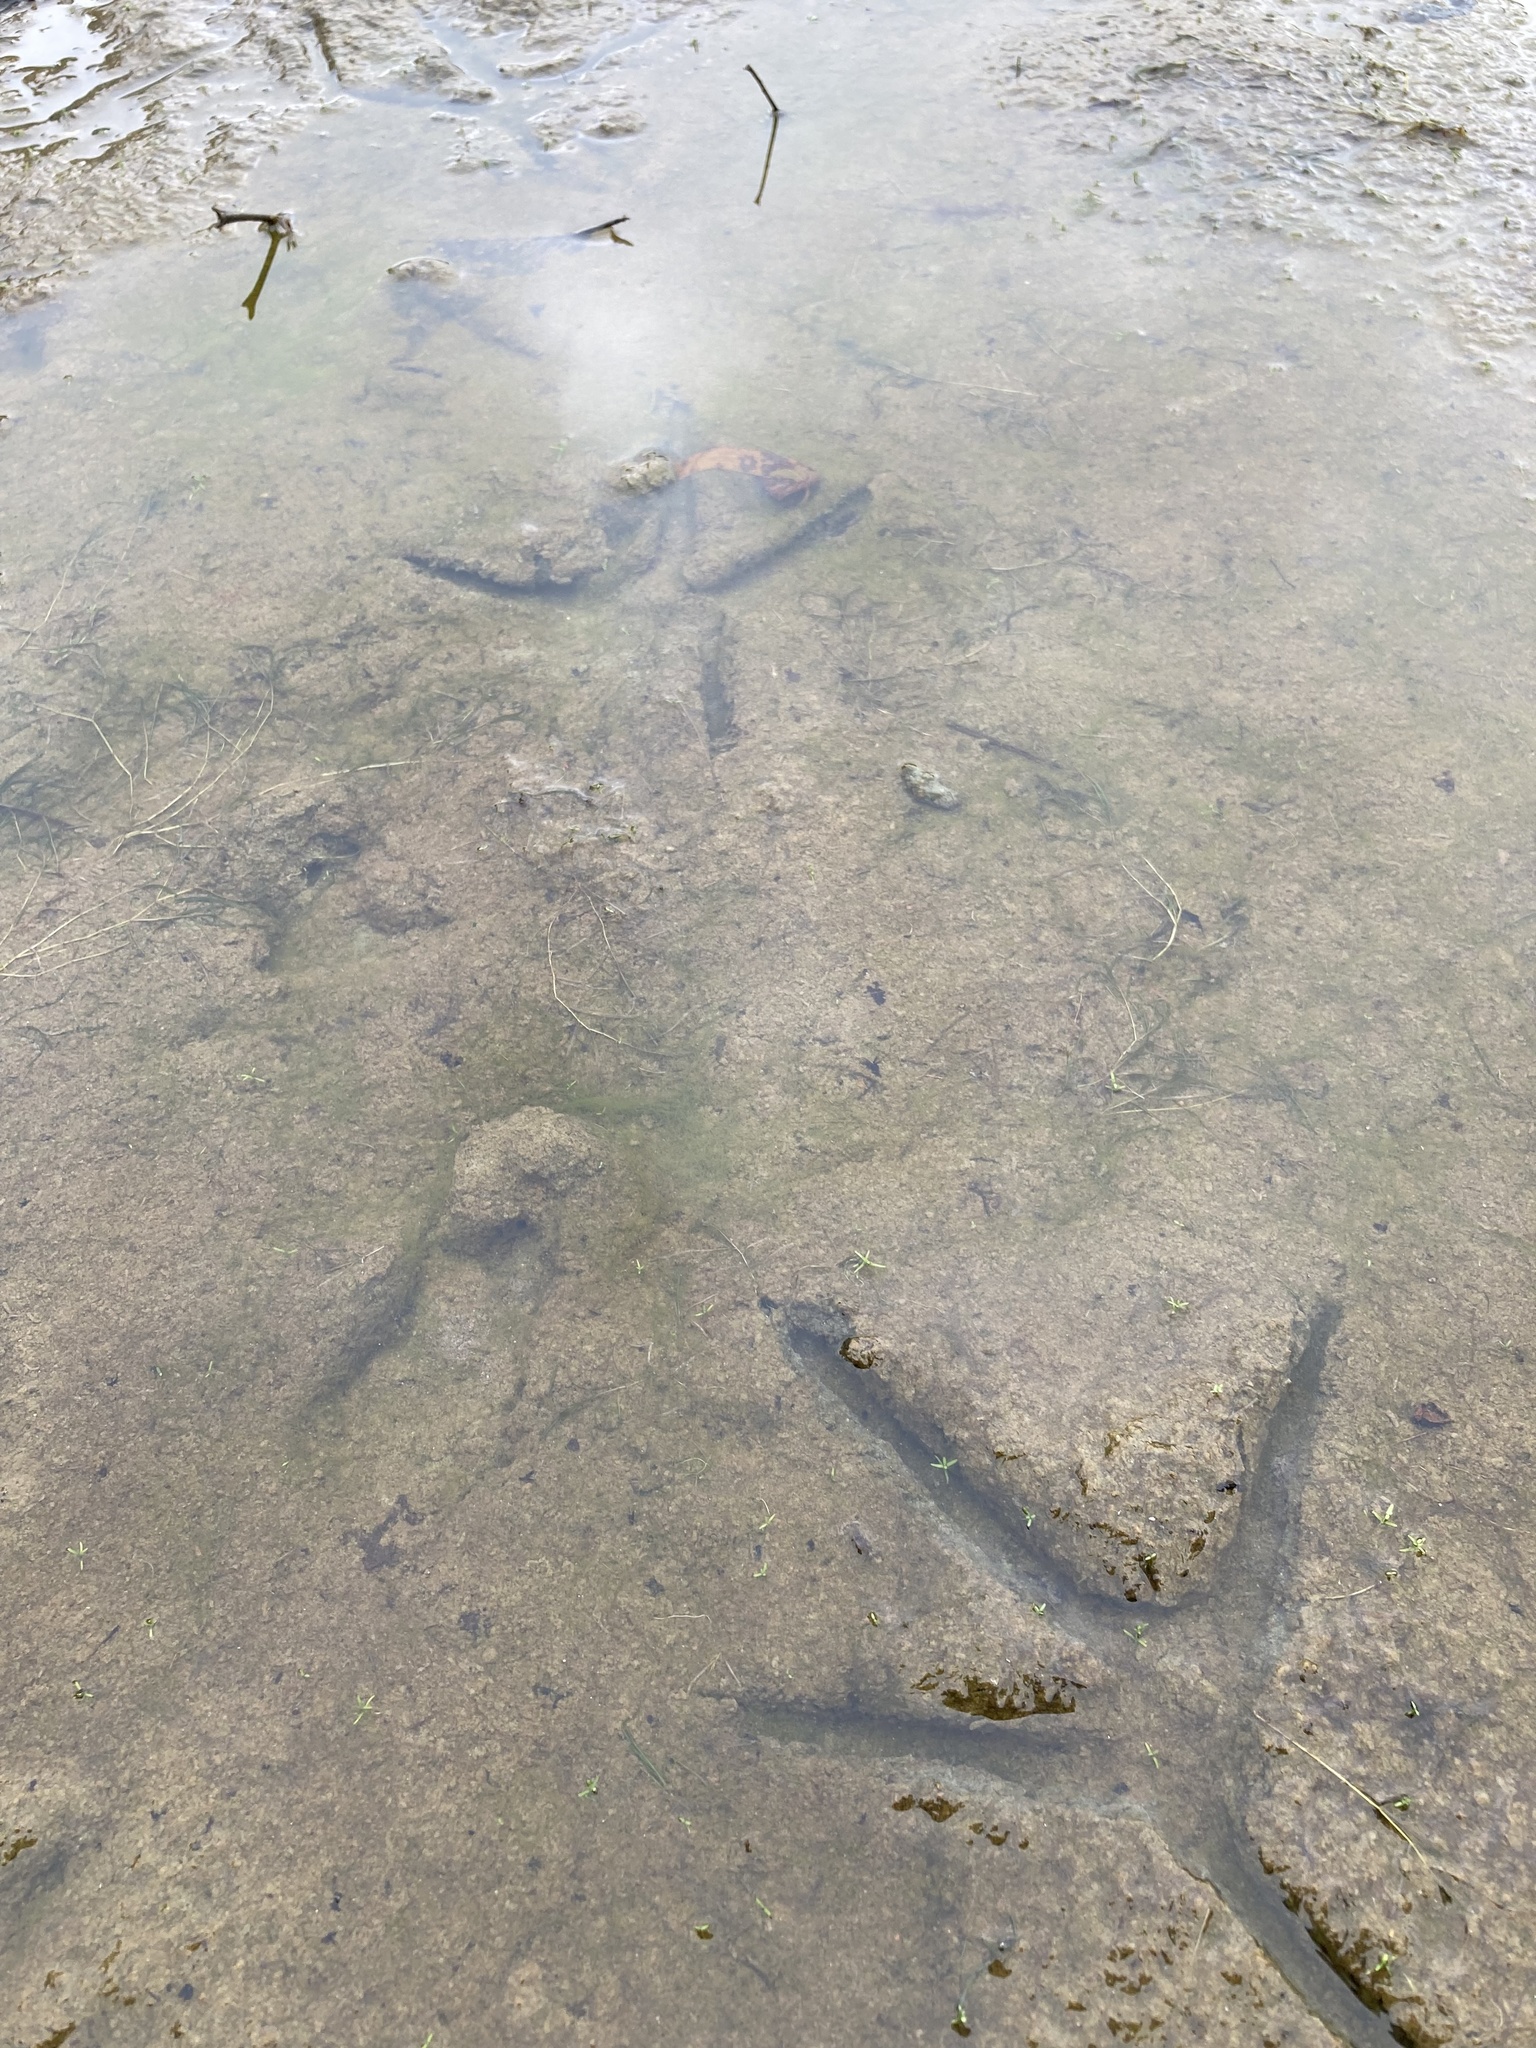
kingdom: Animalia
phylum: Chordata
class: Aves
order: Pelecaniformes
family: Ardeidae
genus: Ardea
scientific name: Ardea herodias
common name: Great blue heron
